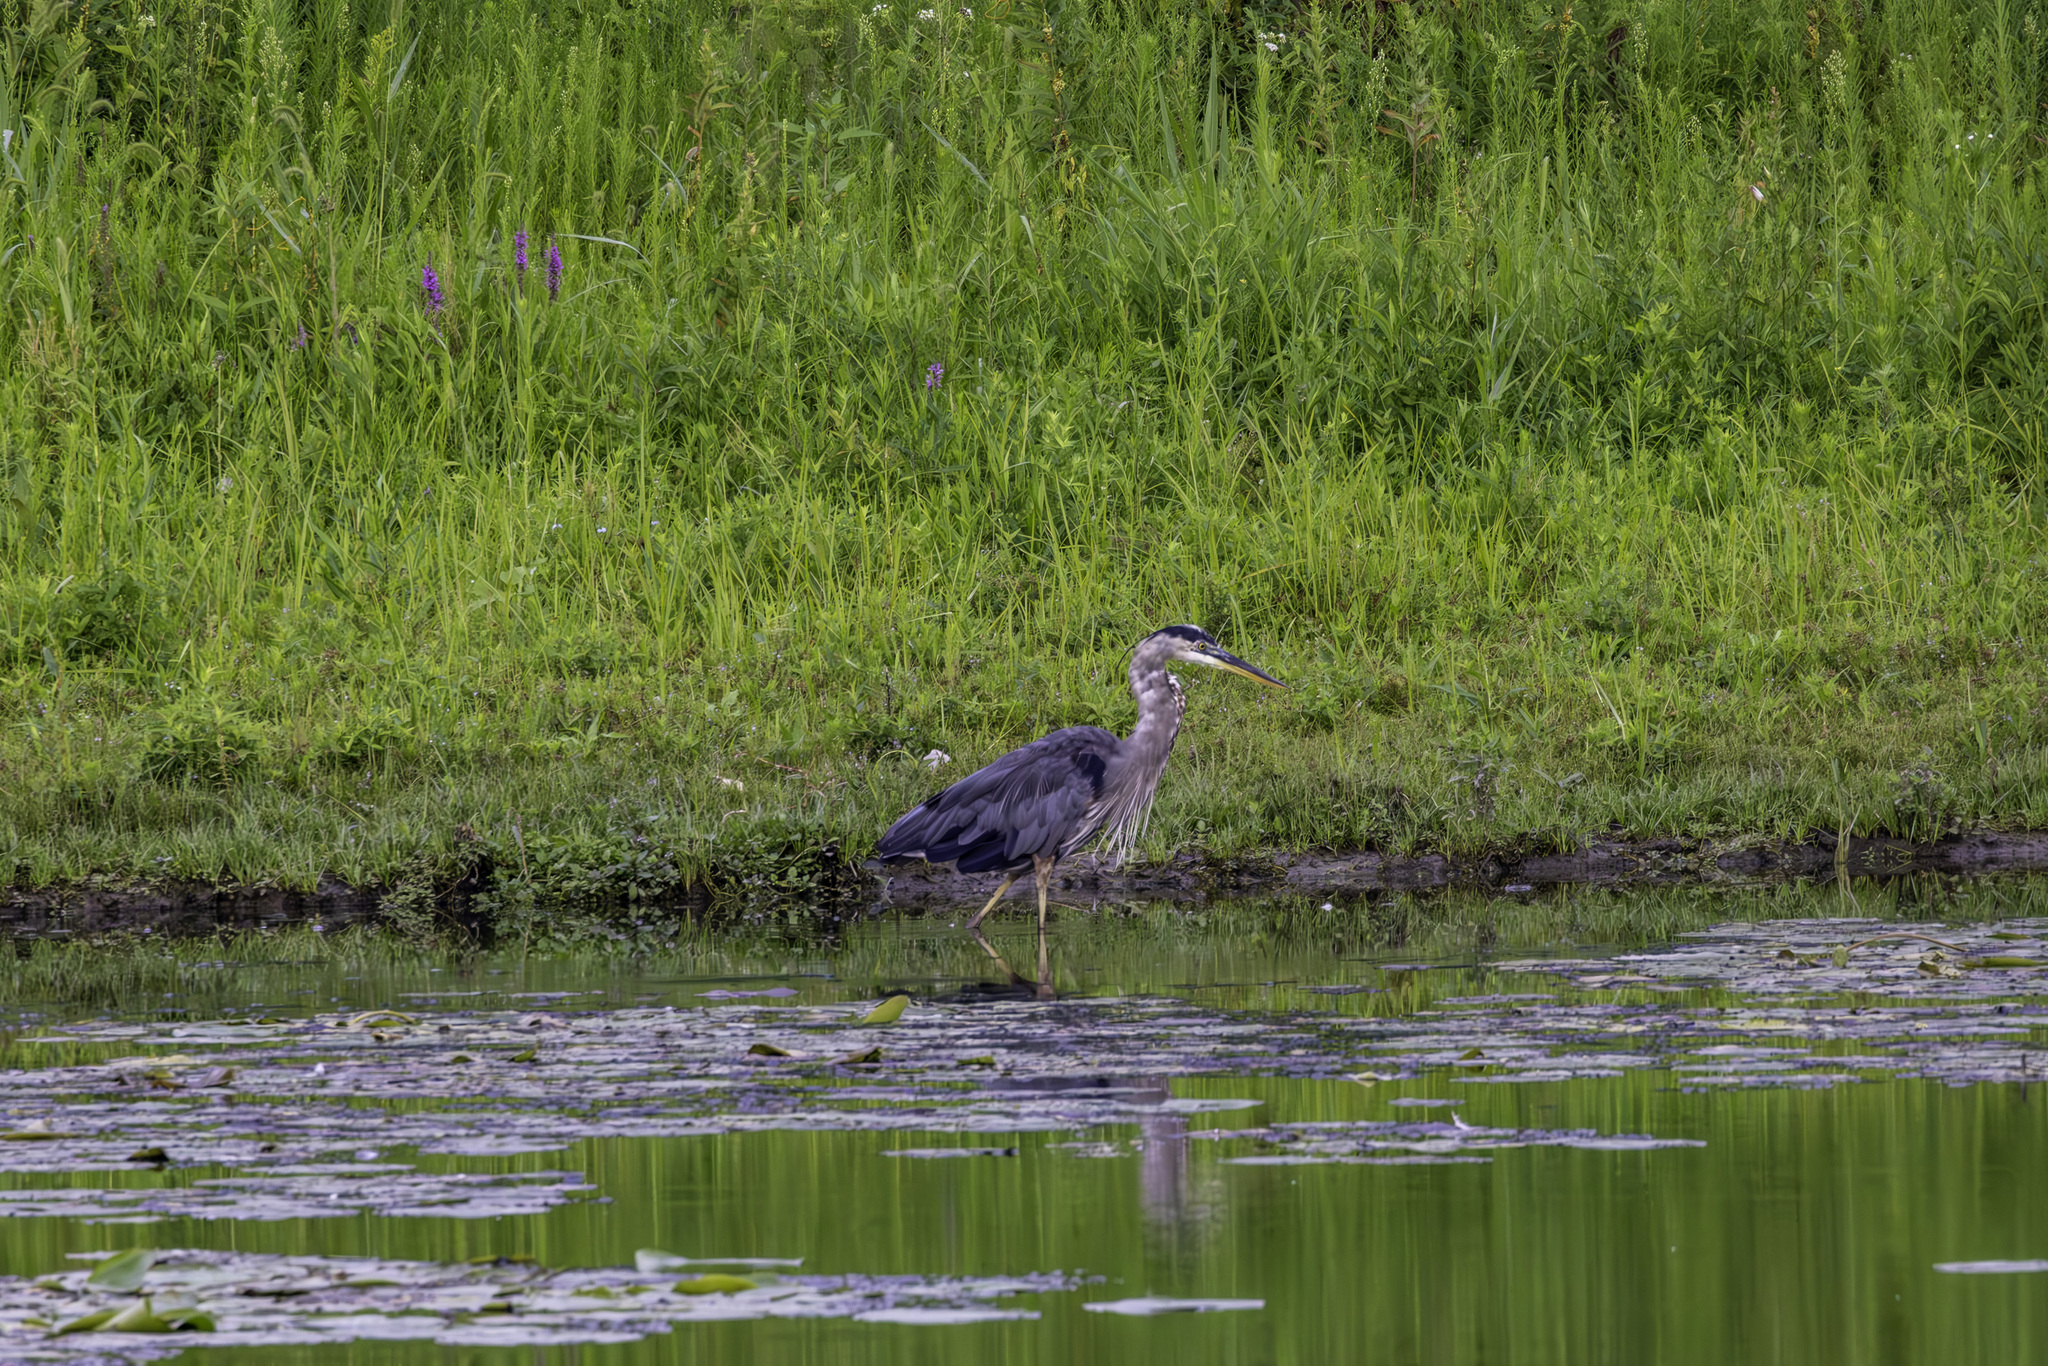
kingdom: Animalia
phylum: Chordata
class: Aves
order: Pelecaniformes
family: Ardeidae
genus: Ardea
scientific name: Ardea herodias
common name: Great blue heron
